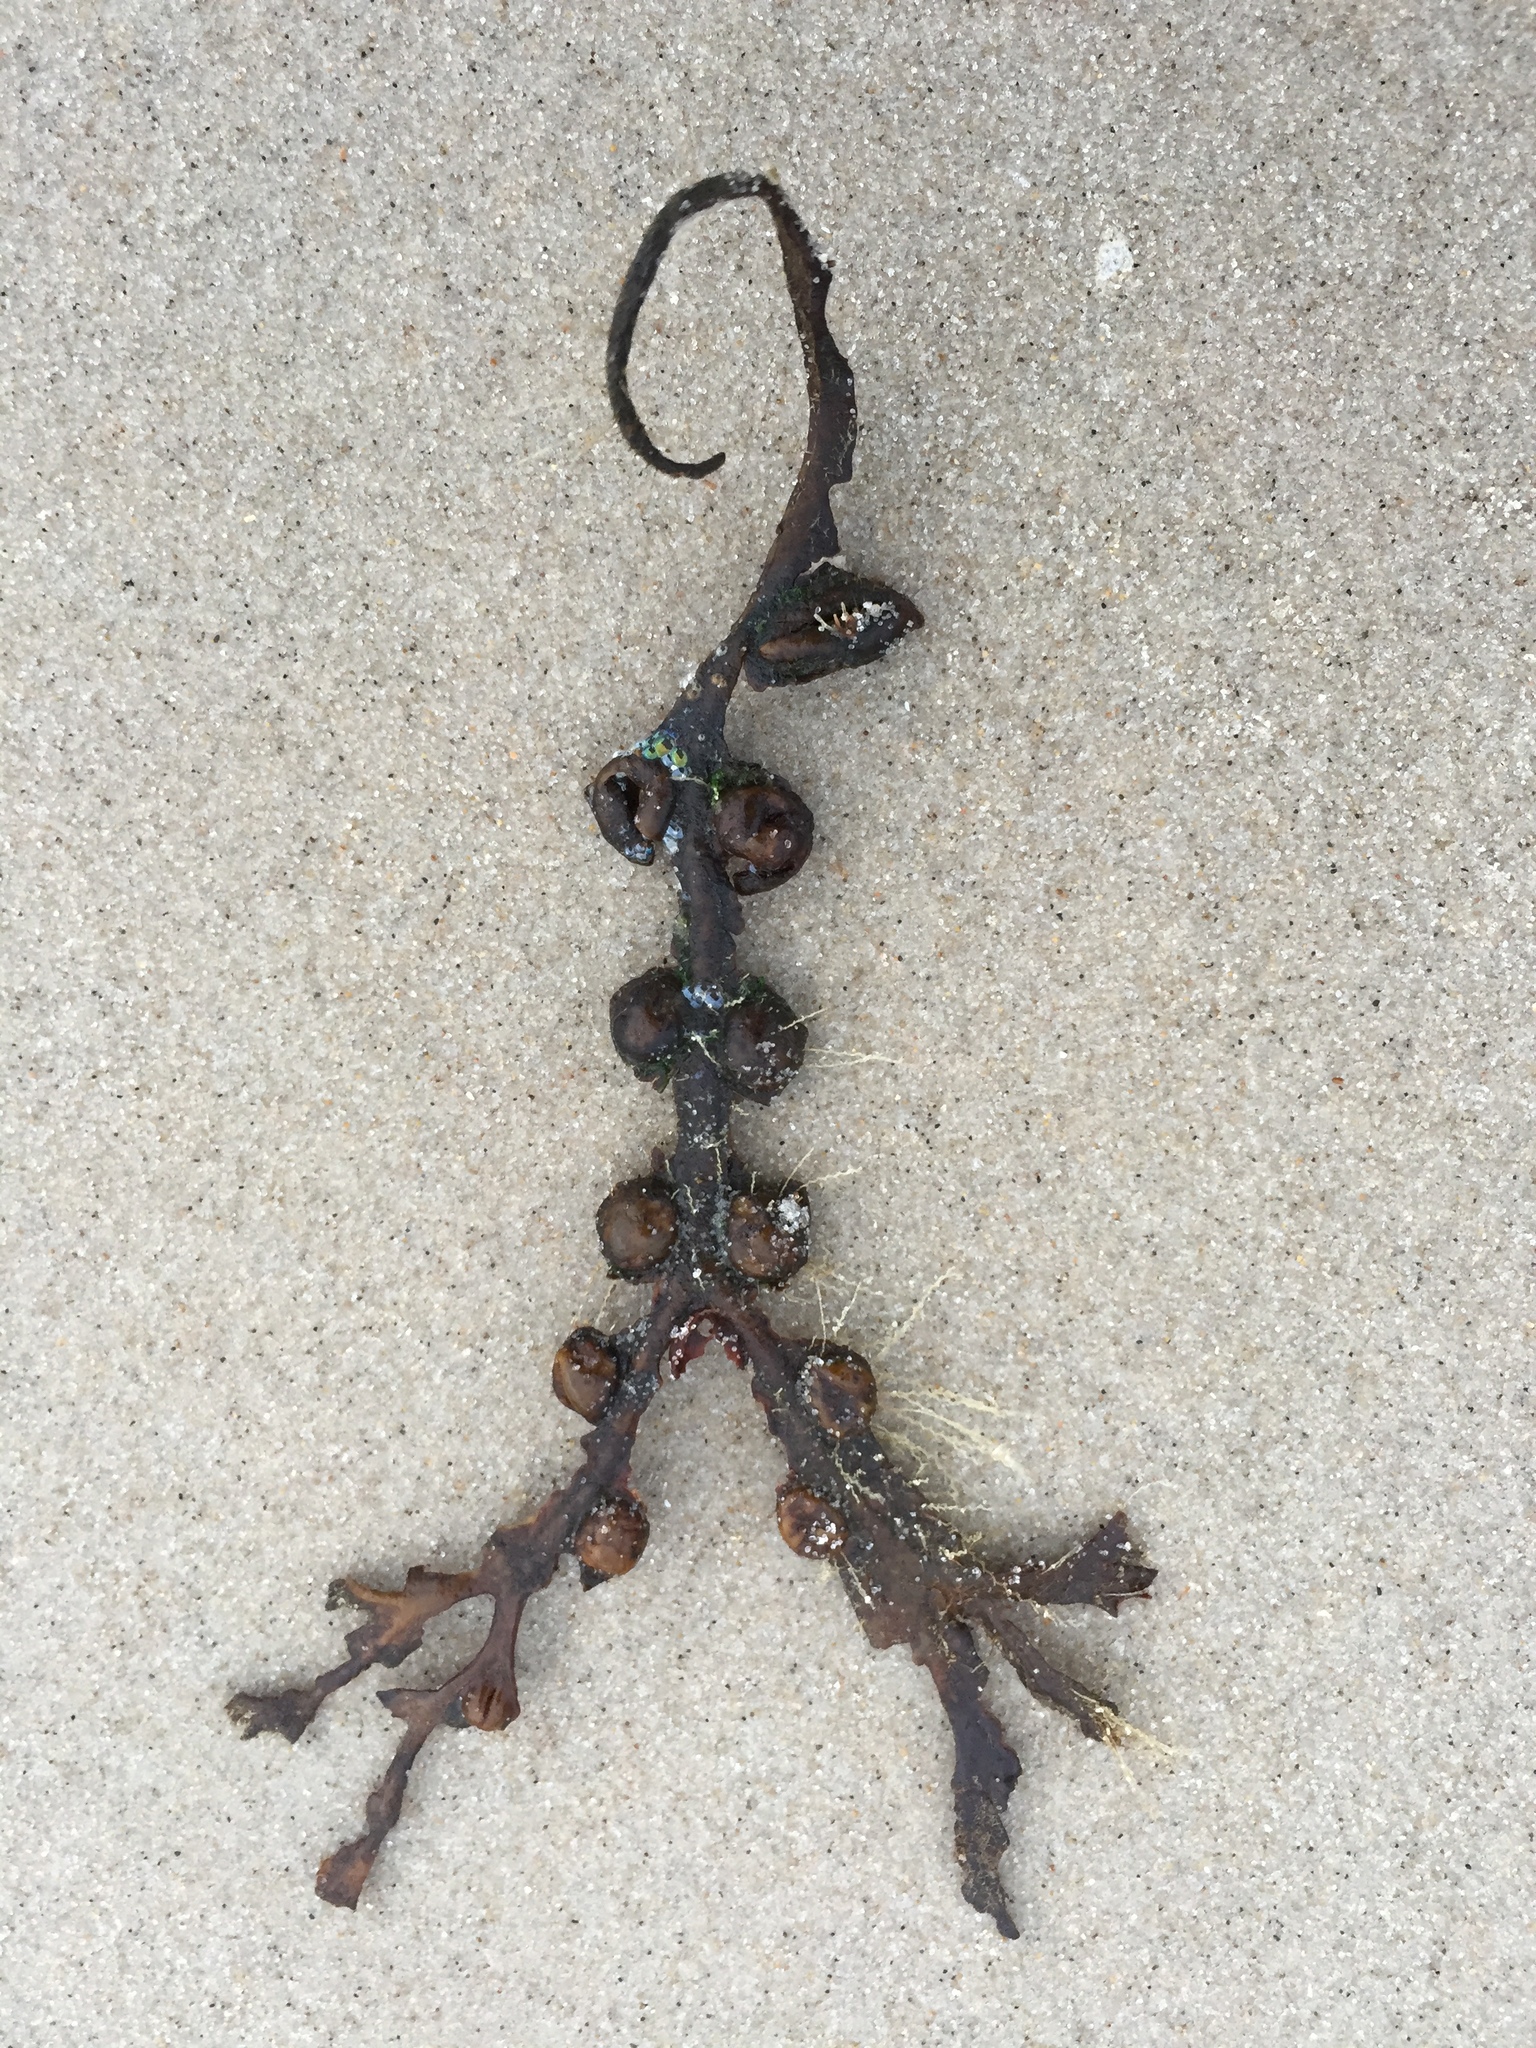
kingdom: Chromista
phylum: Ochrophyta
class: Phaeophyceae
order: Fucales
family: Fucaceae
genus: Fucus
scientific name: Fucus vesiculosus
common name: Bladder wrack
